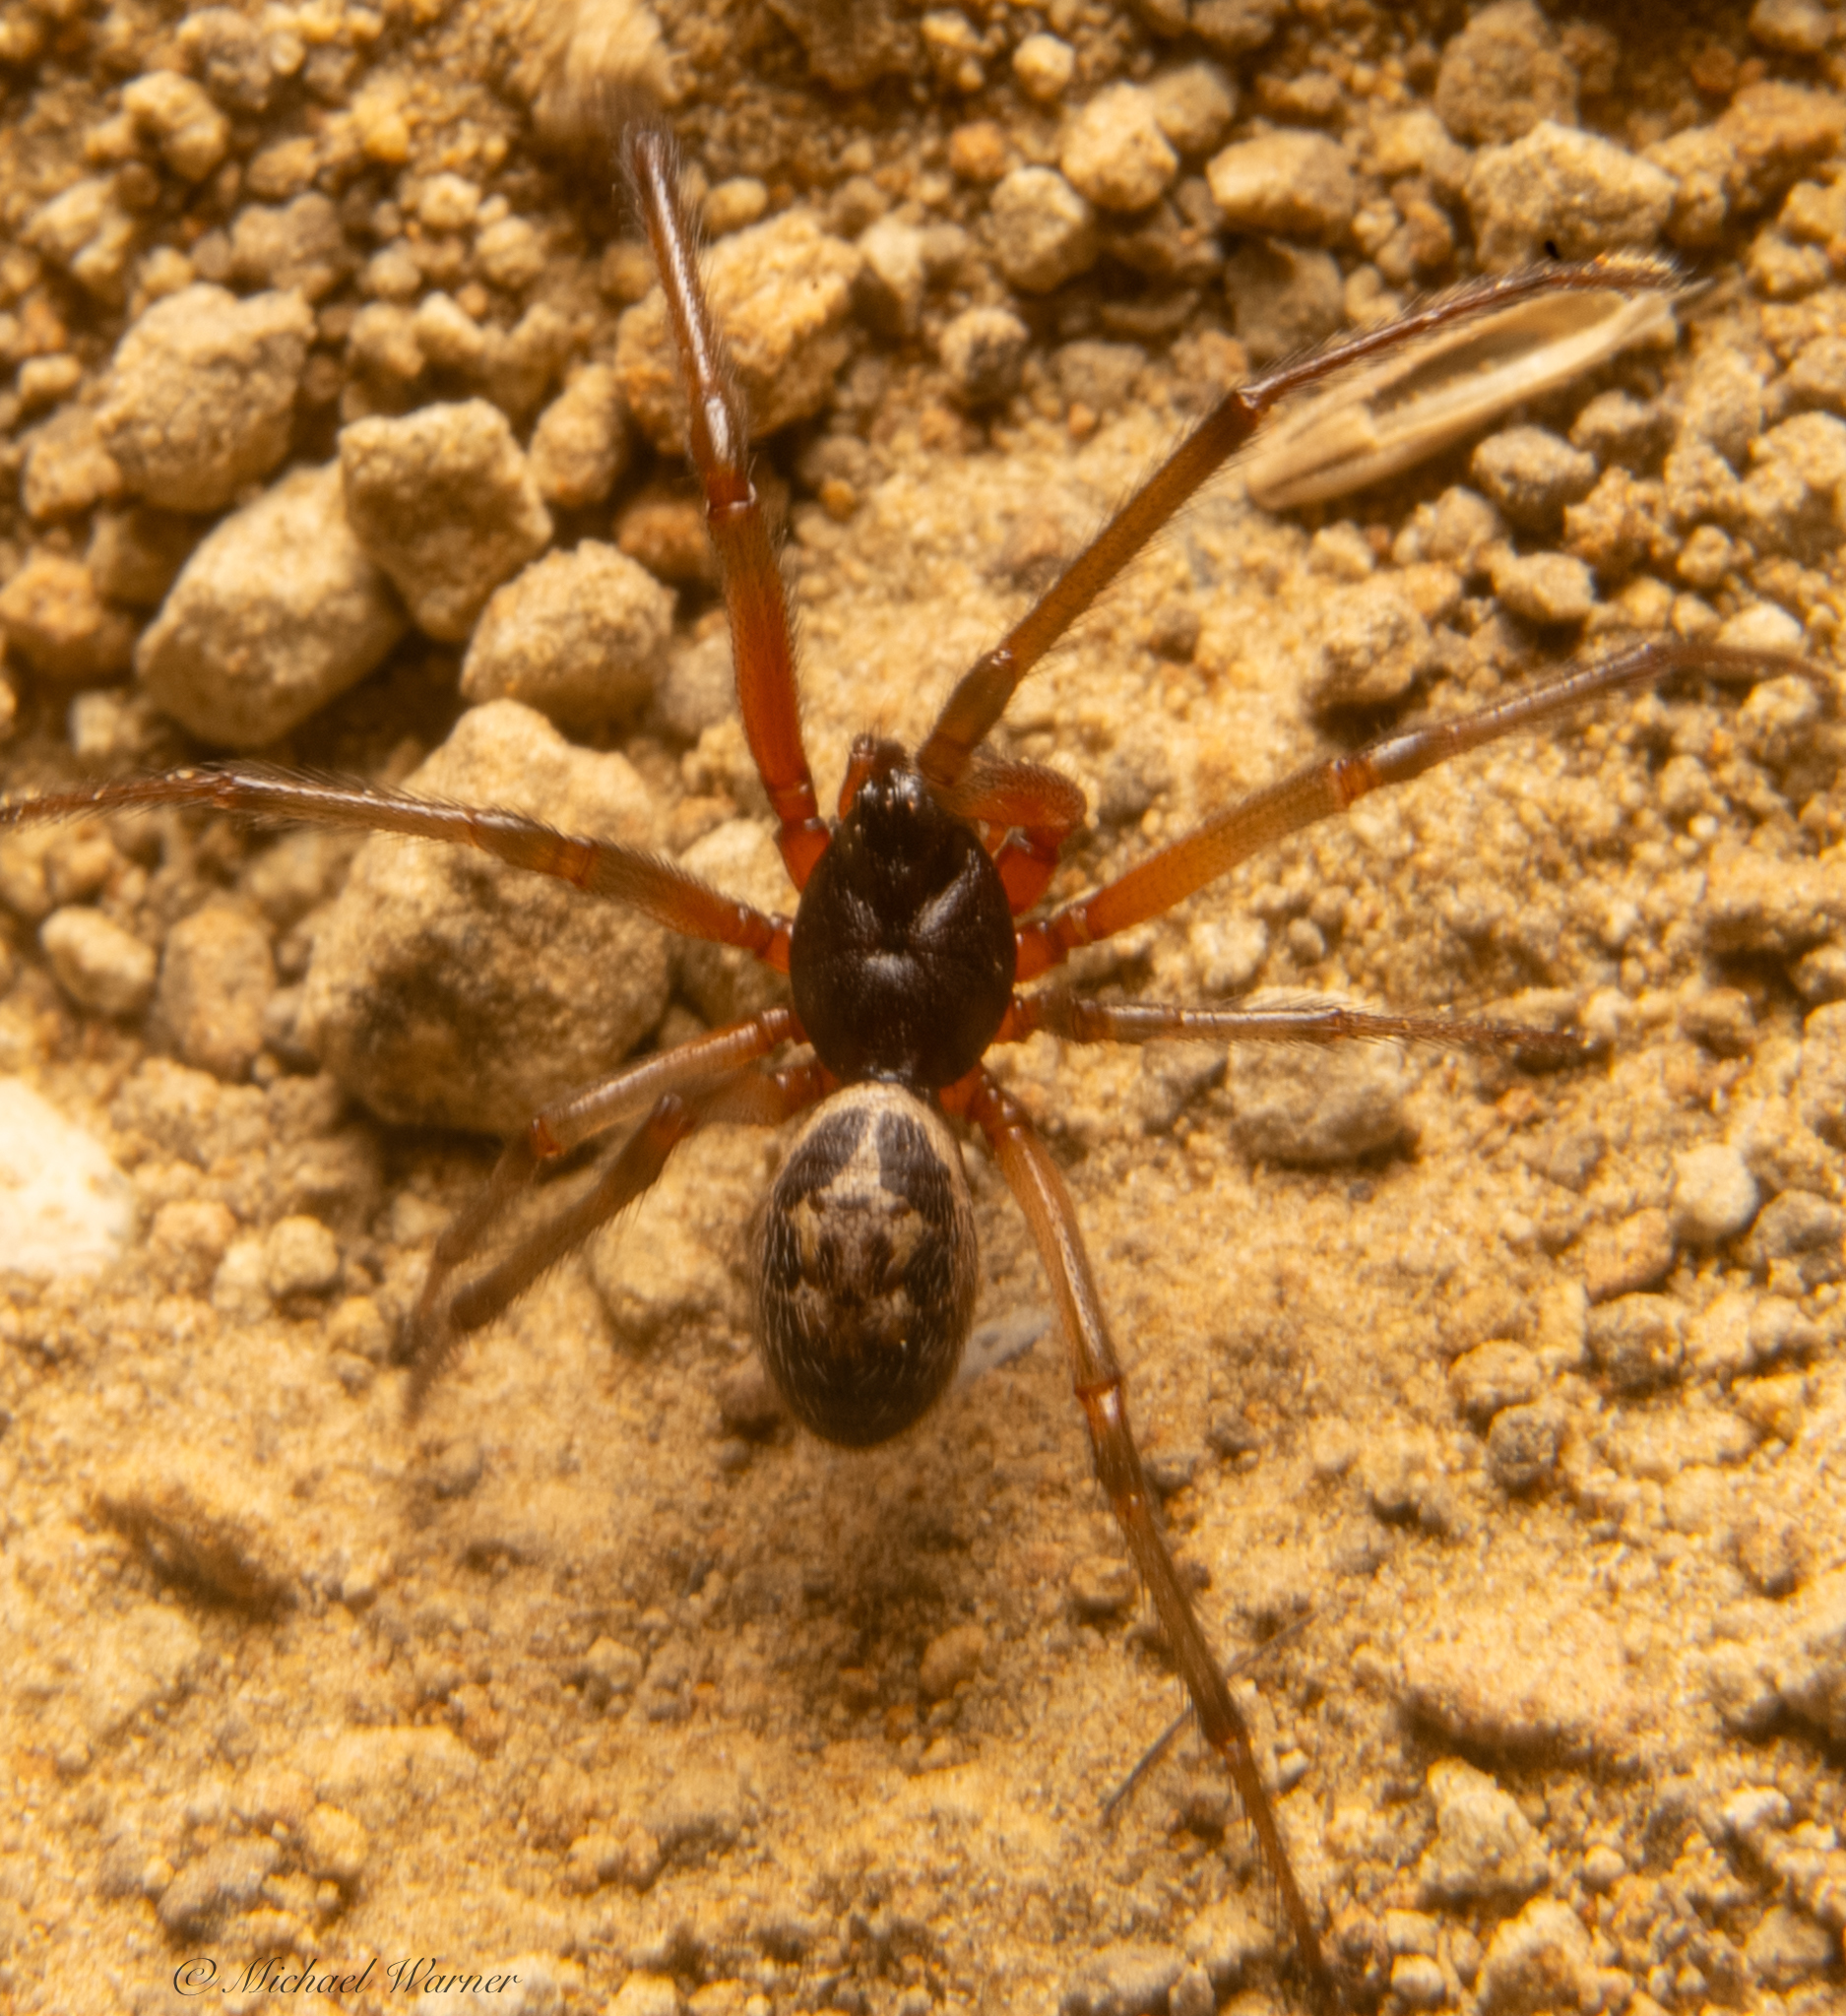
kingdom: Animalia
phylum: Arthropoda
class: Arachnida
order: Araneae
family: Theridiidae
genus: Steatoda
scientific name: Steatoda nobilis
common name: Cobweb weaver
